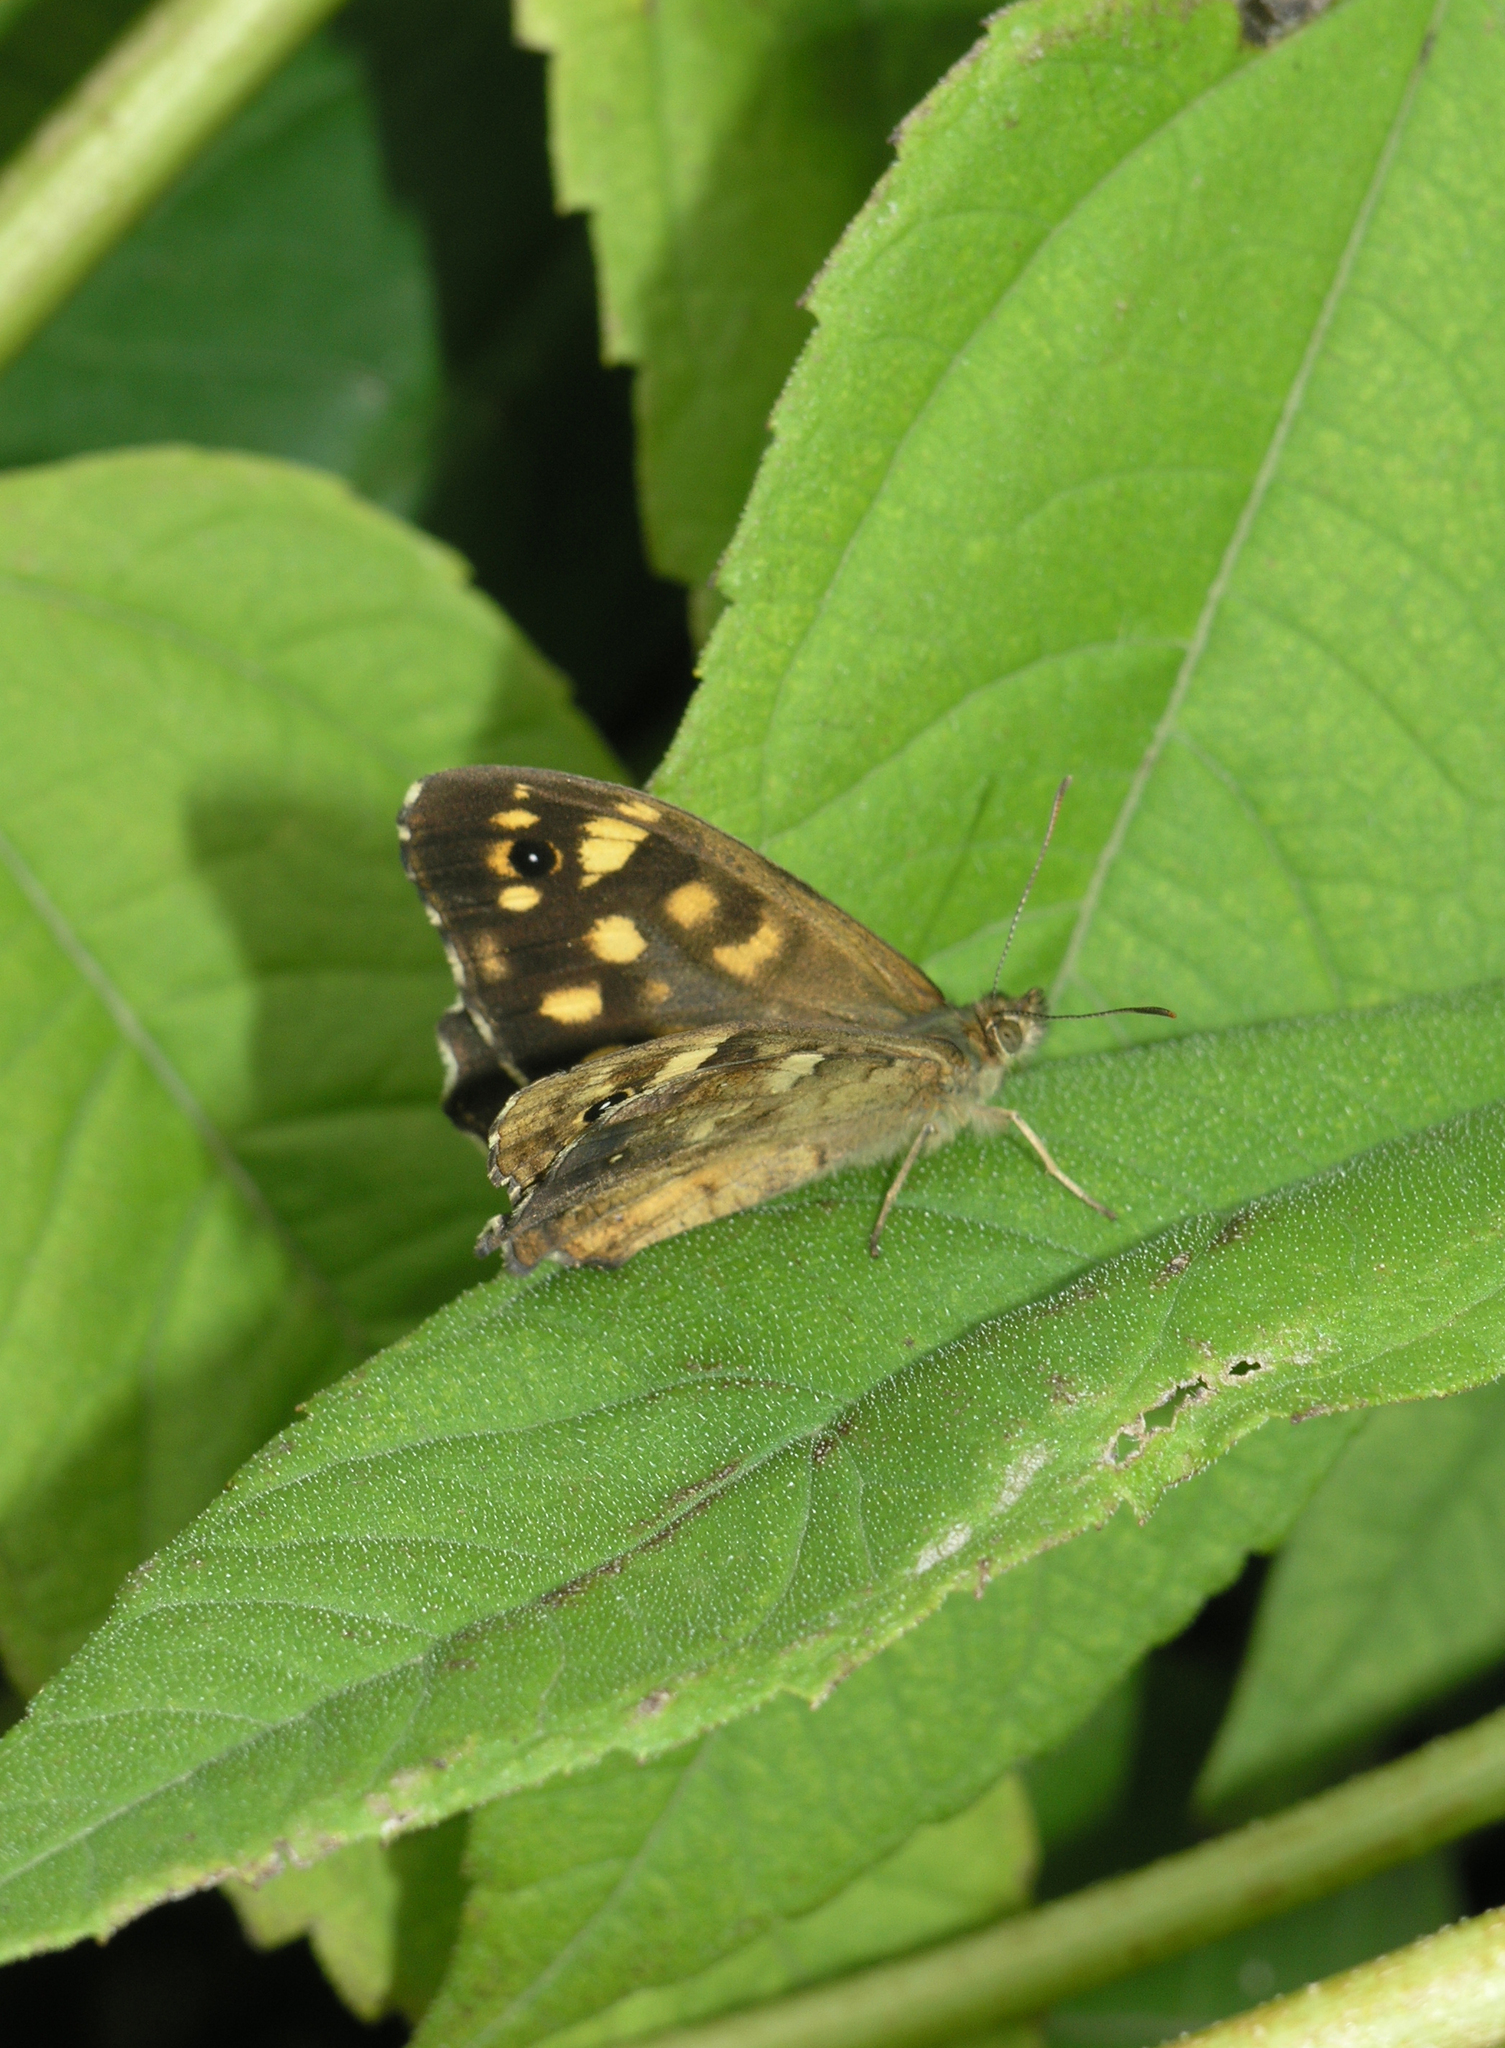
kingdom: Animalia
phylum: Arthropoda
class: Insecta
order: Lepidoptera
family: Nymphalidae
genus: Pararge
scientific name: Pararge aegeria
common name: Speckled wood
